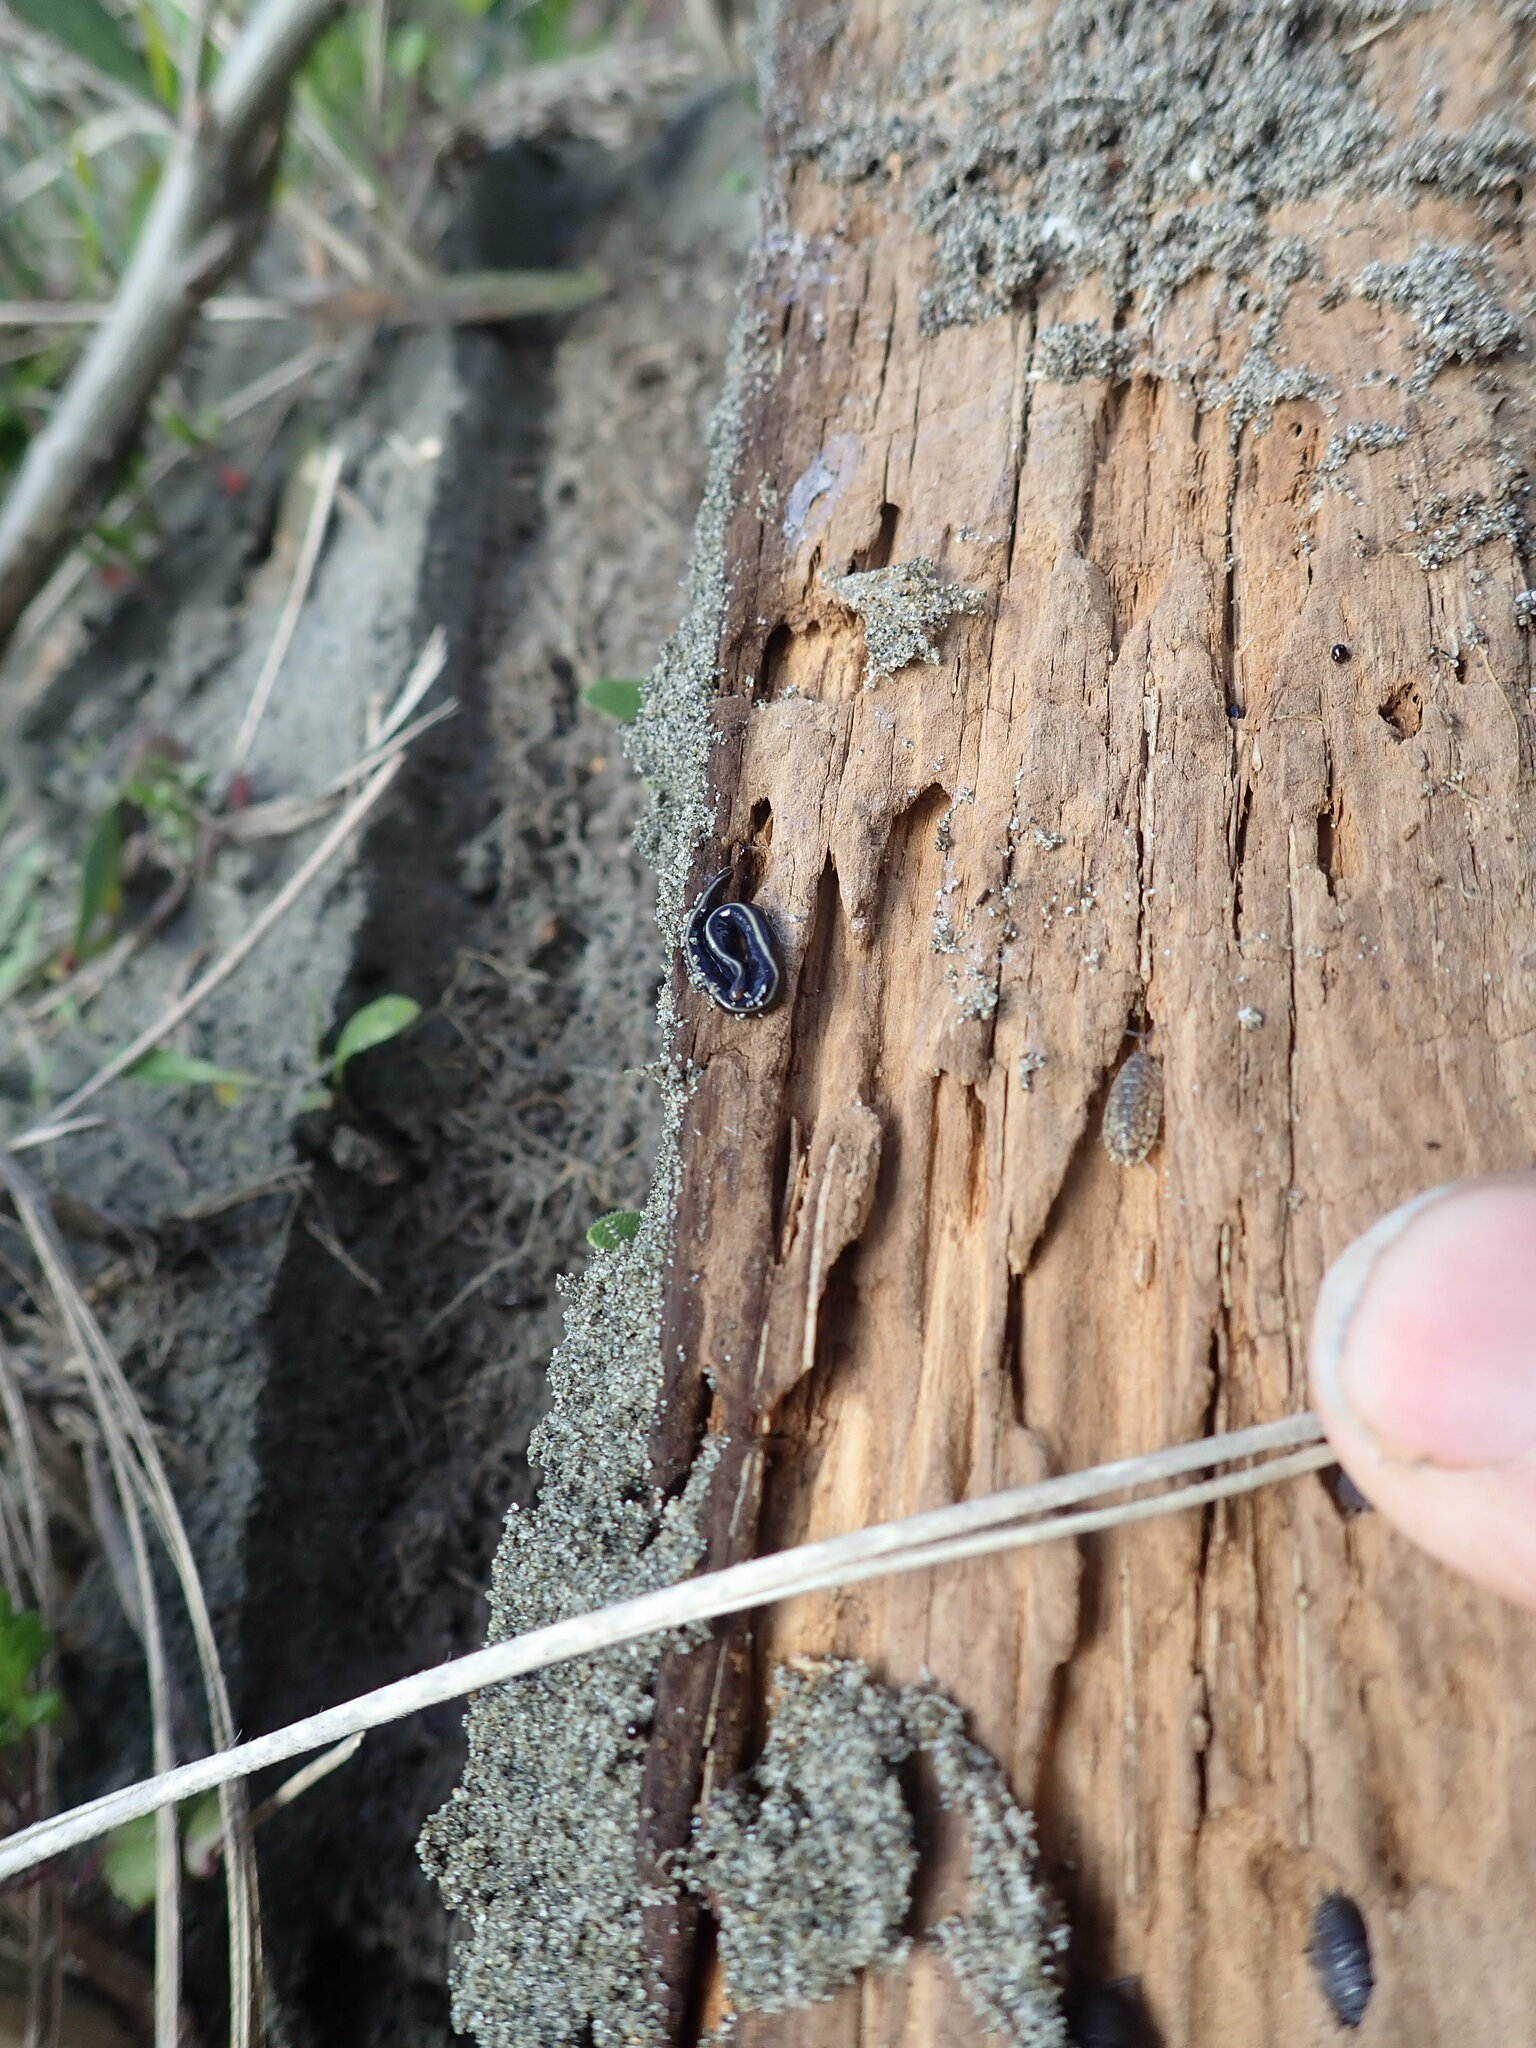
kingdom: Animalia
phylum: Platyhelminthes
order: Tricladida
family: Geoplanidae
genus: Caenoplana
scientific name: Caenoplana coerulea
